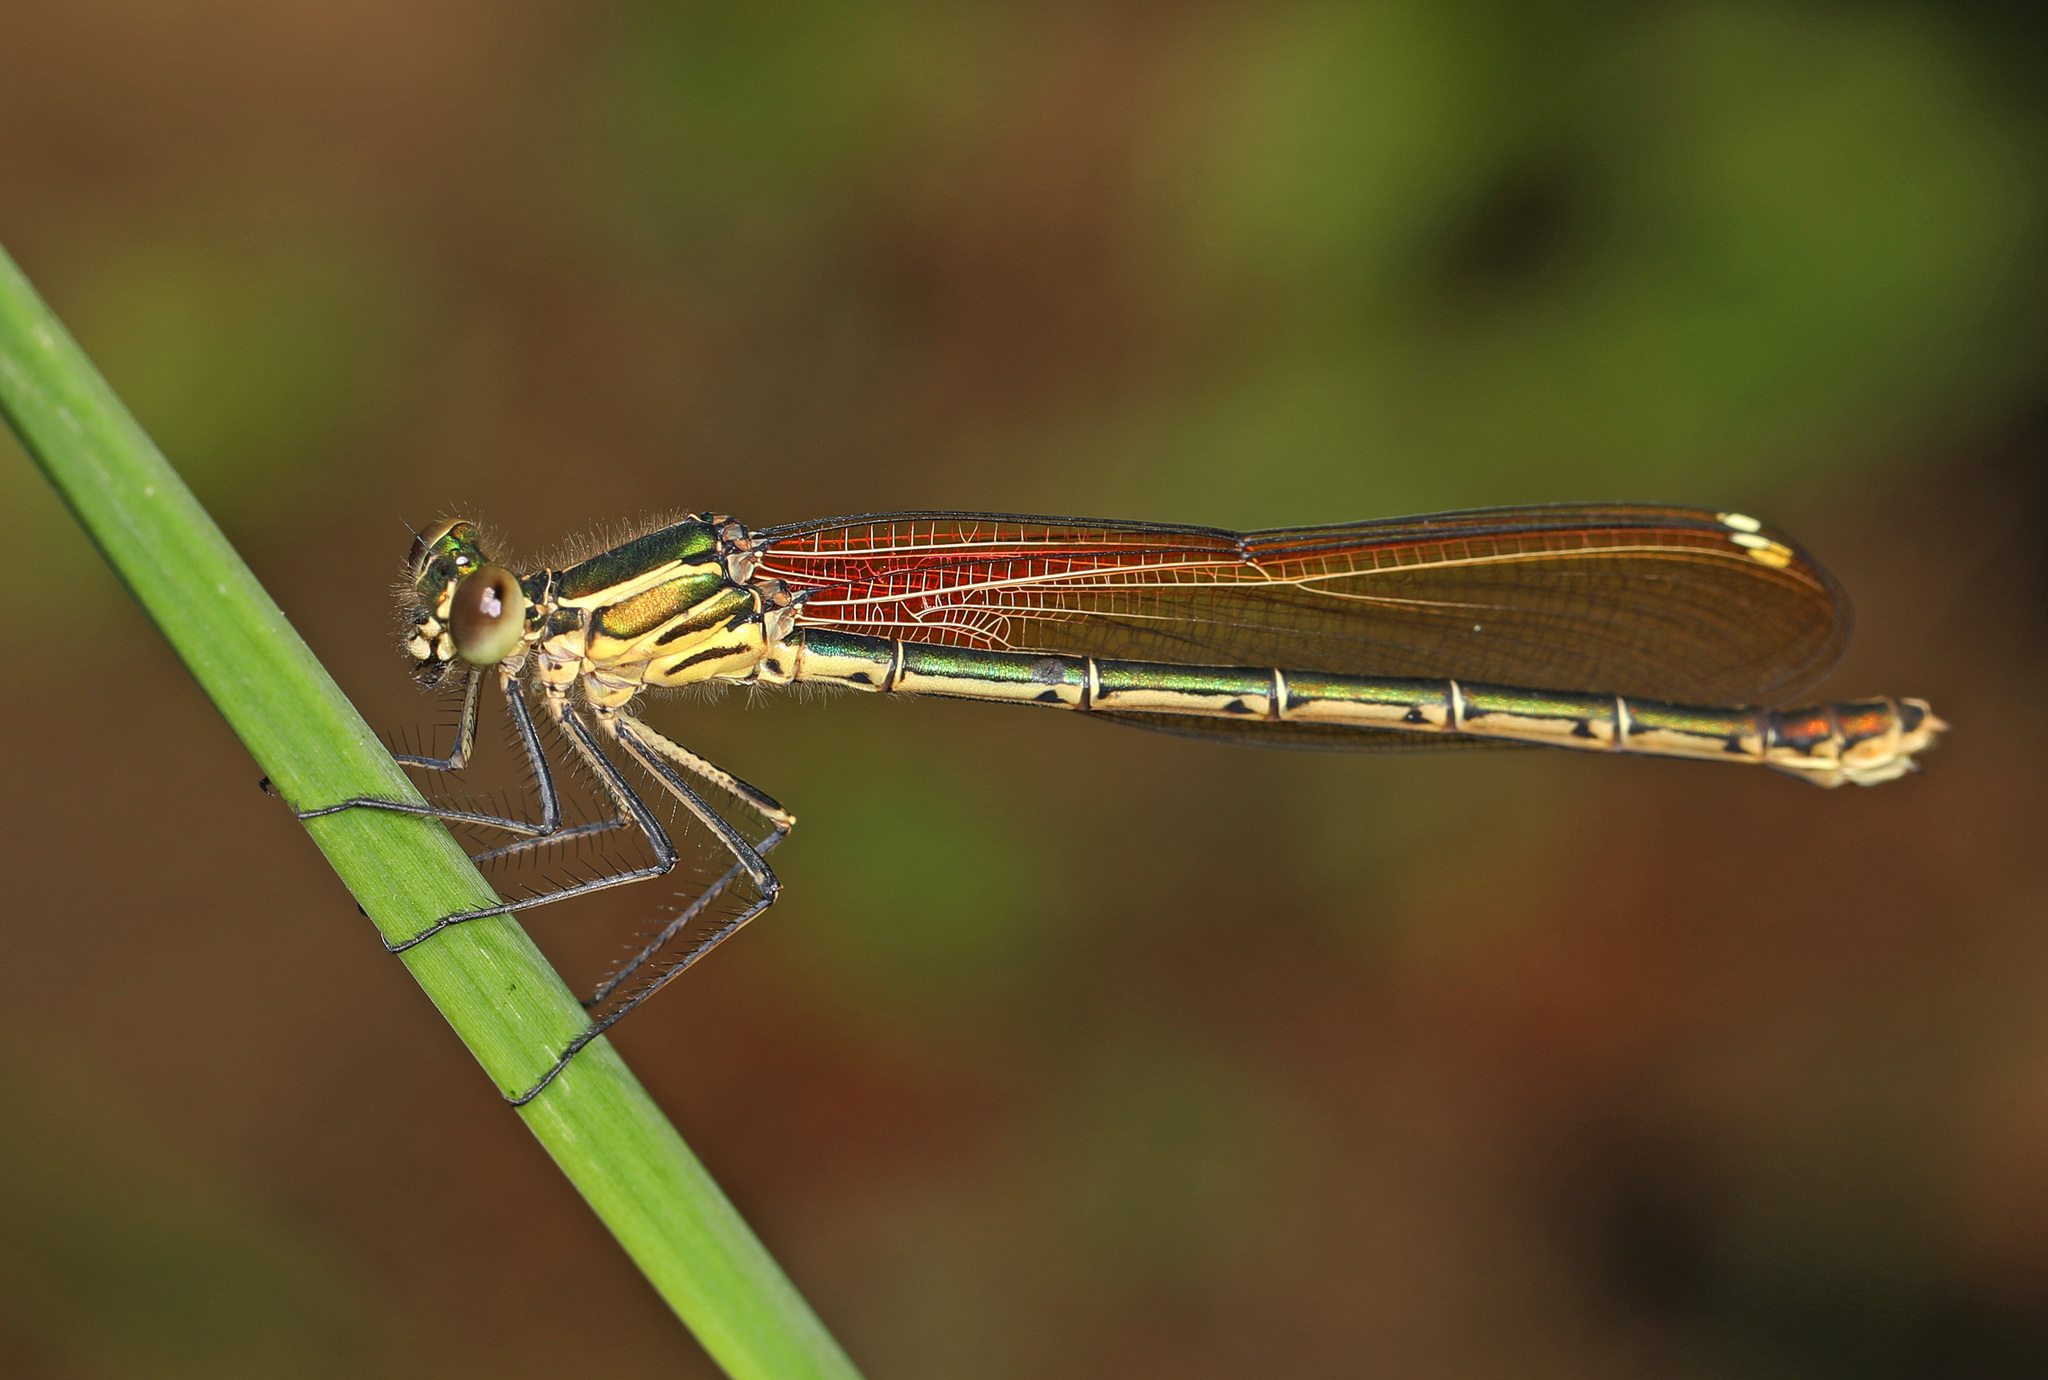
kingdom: Animalia
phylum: Arthropoda
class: Insecta
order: Odonata
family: Calopterygidae
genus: Hetaerina
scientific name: Hetaerina americana
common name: American rubyspot
